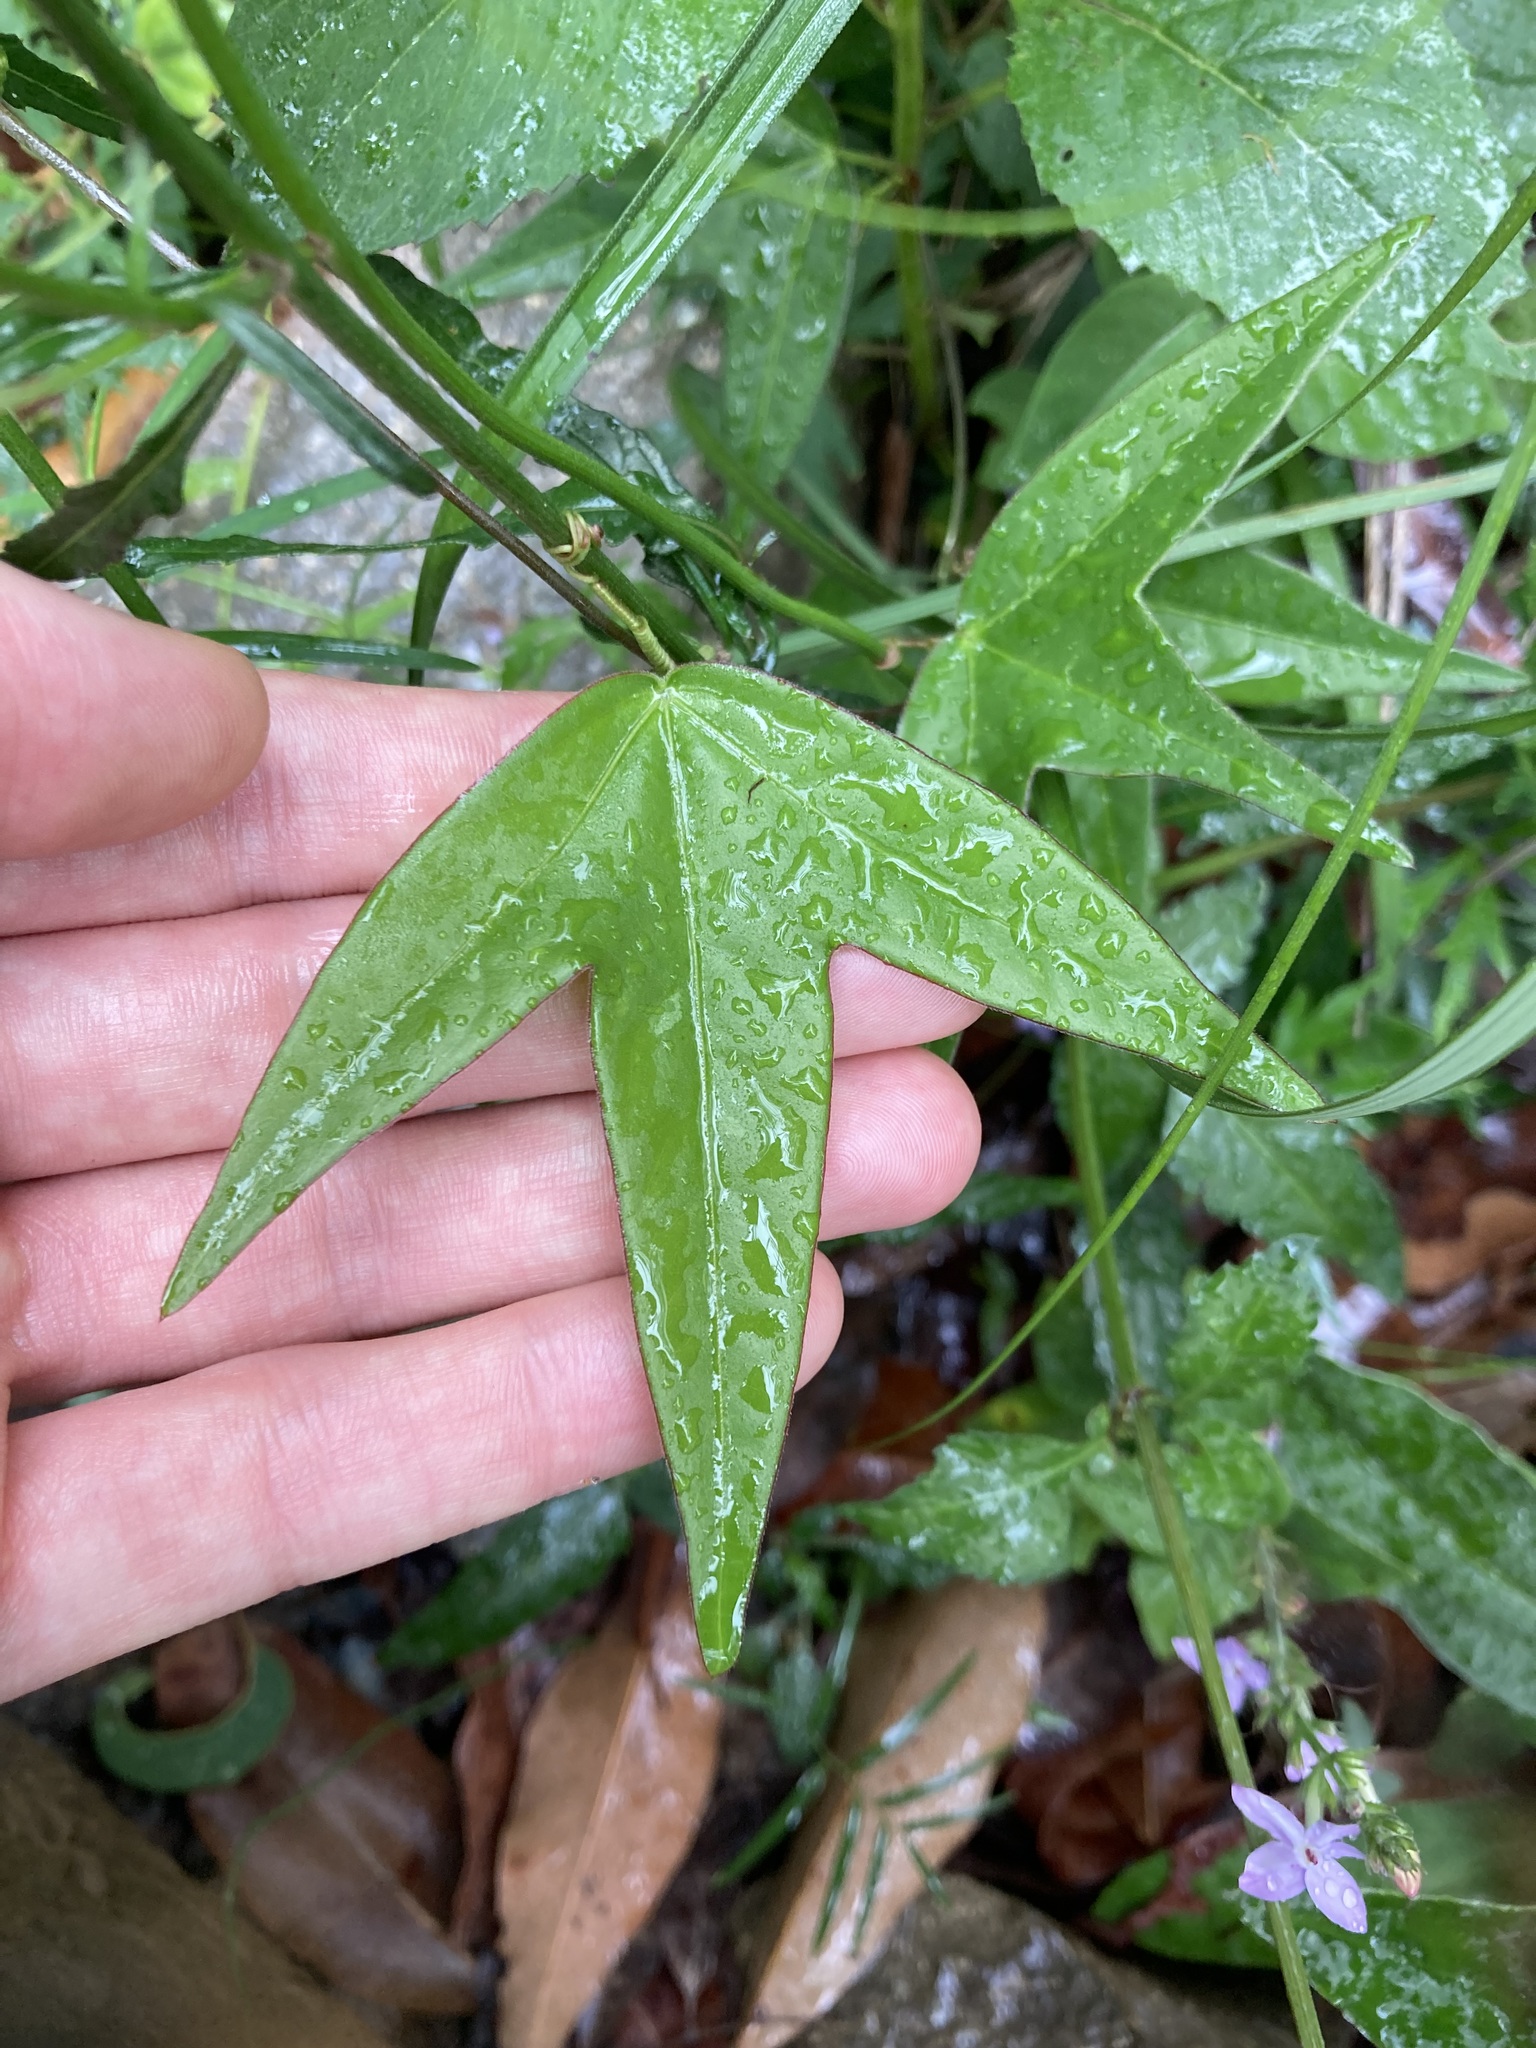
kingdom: Plantae
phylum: Tracheophyta
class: Magnoliopsida
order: Malpighiales
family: Passifloraceae
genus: Passiflora
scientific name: Passiflora suberosa
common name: Wild passionfruit
